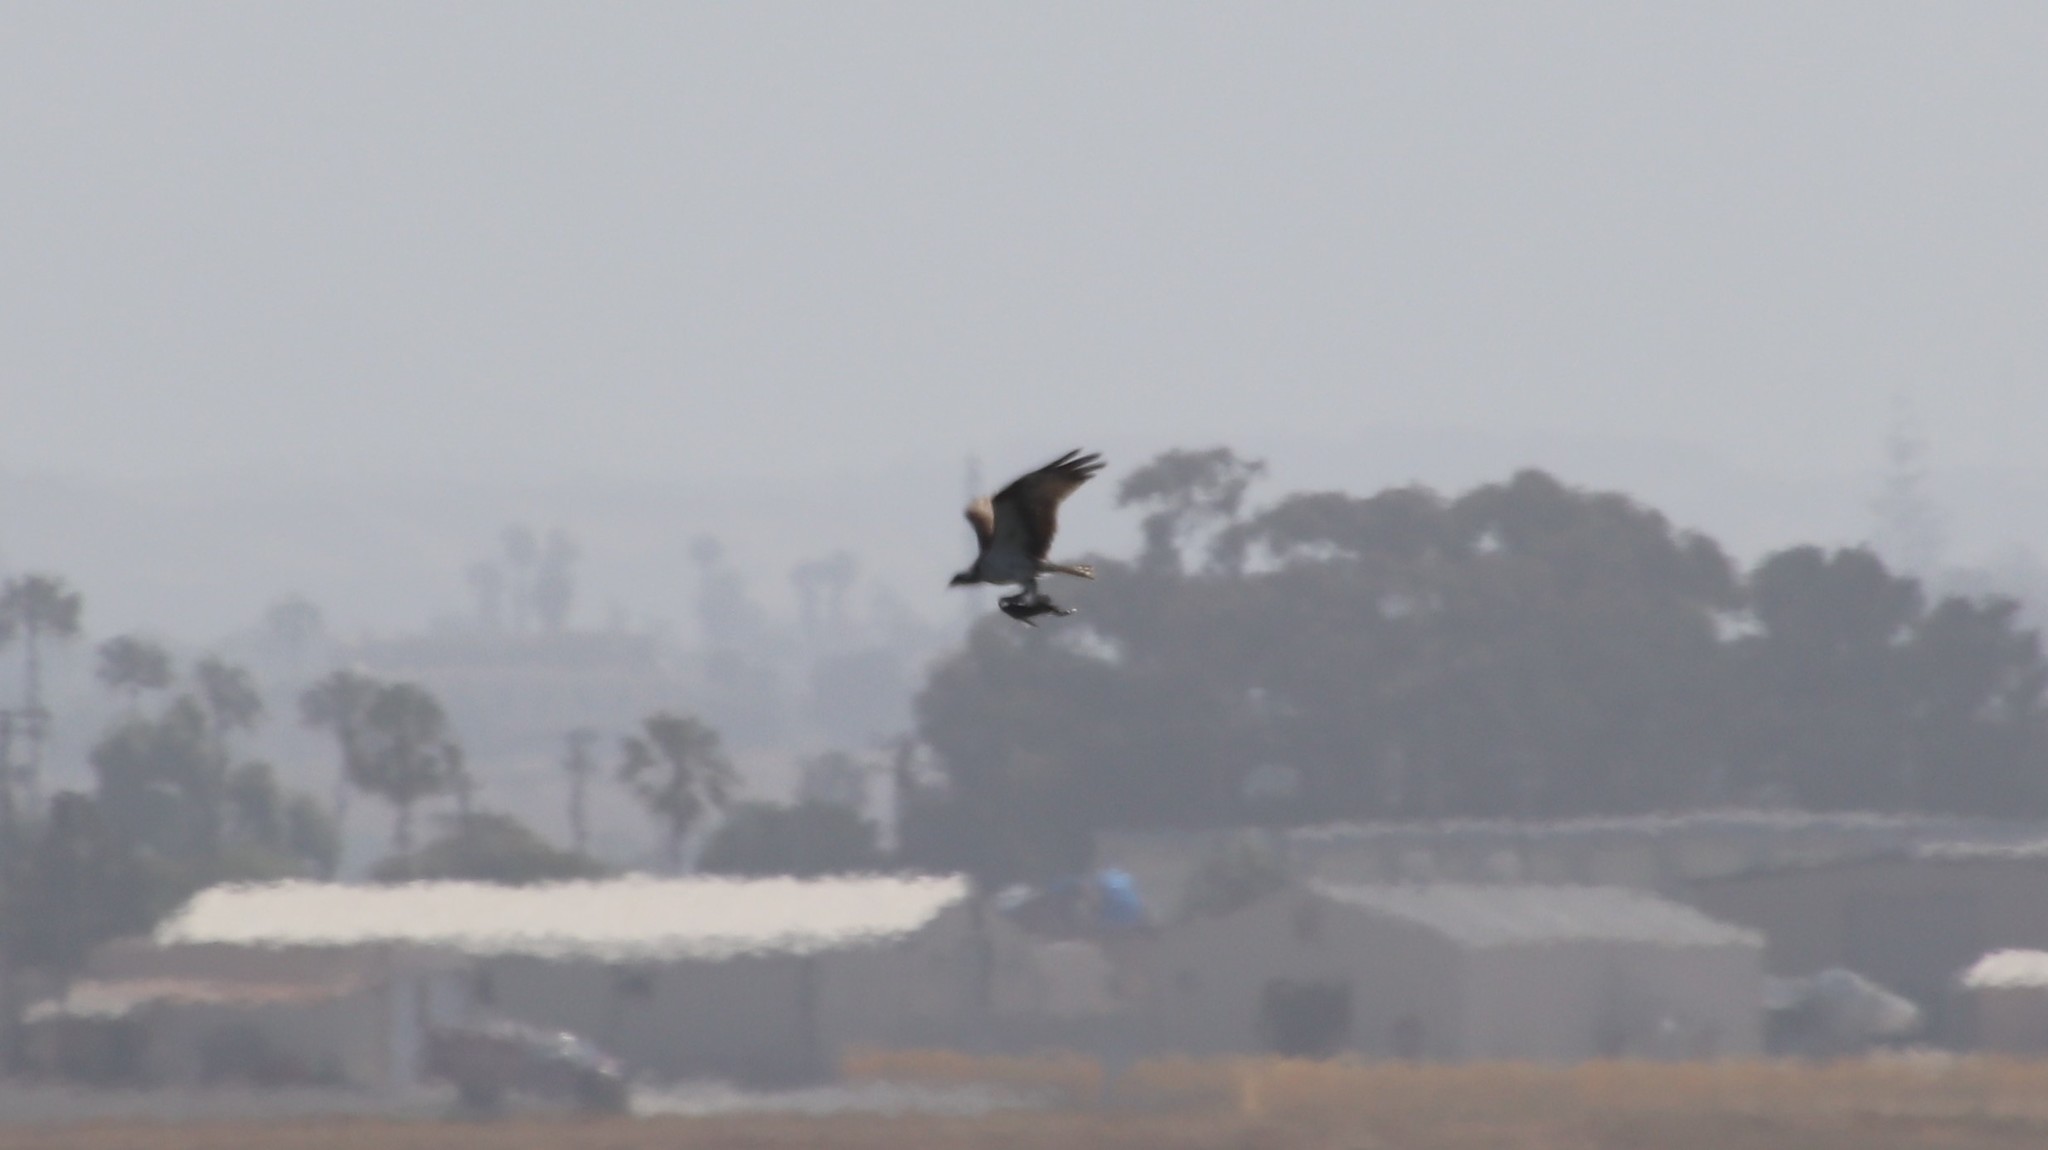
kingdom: Animalia
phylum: Chordata
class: Aves
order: Accipitriformes
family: Pandionidae
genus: Pandion
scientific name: Pandion haliaetus
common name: Osprey
